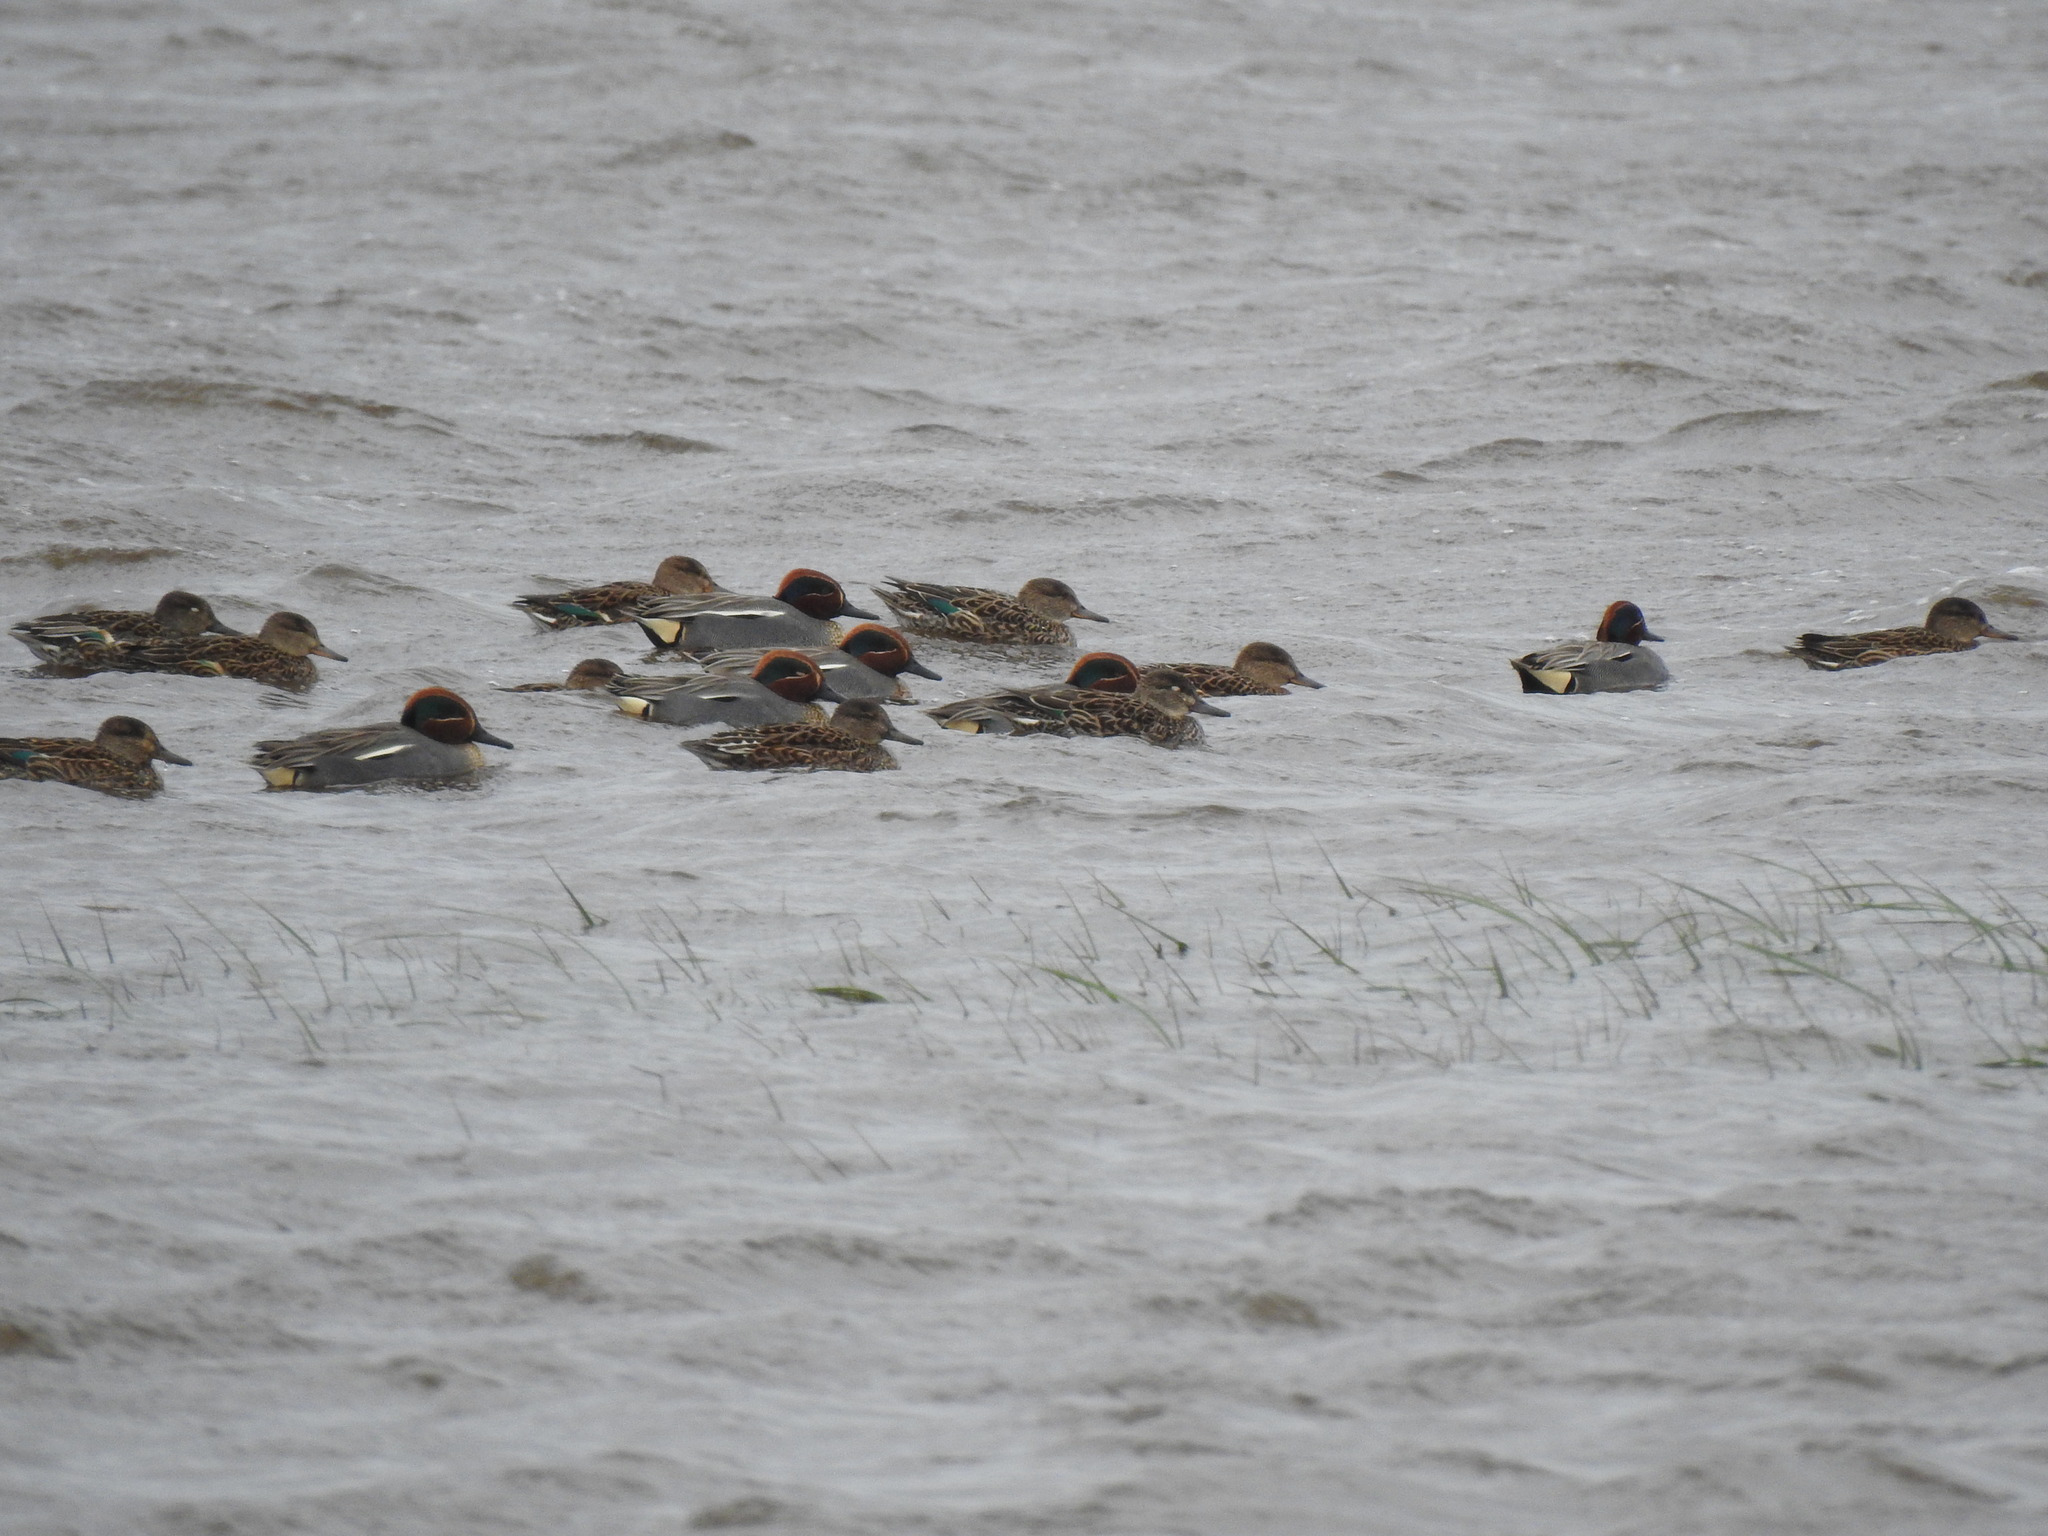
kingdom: Animalia
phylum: Chordata
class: Aves
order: Anseriformes
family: Anatidae
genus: Anas
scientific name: Anas crecca
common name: Eurasian teal
